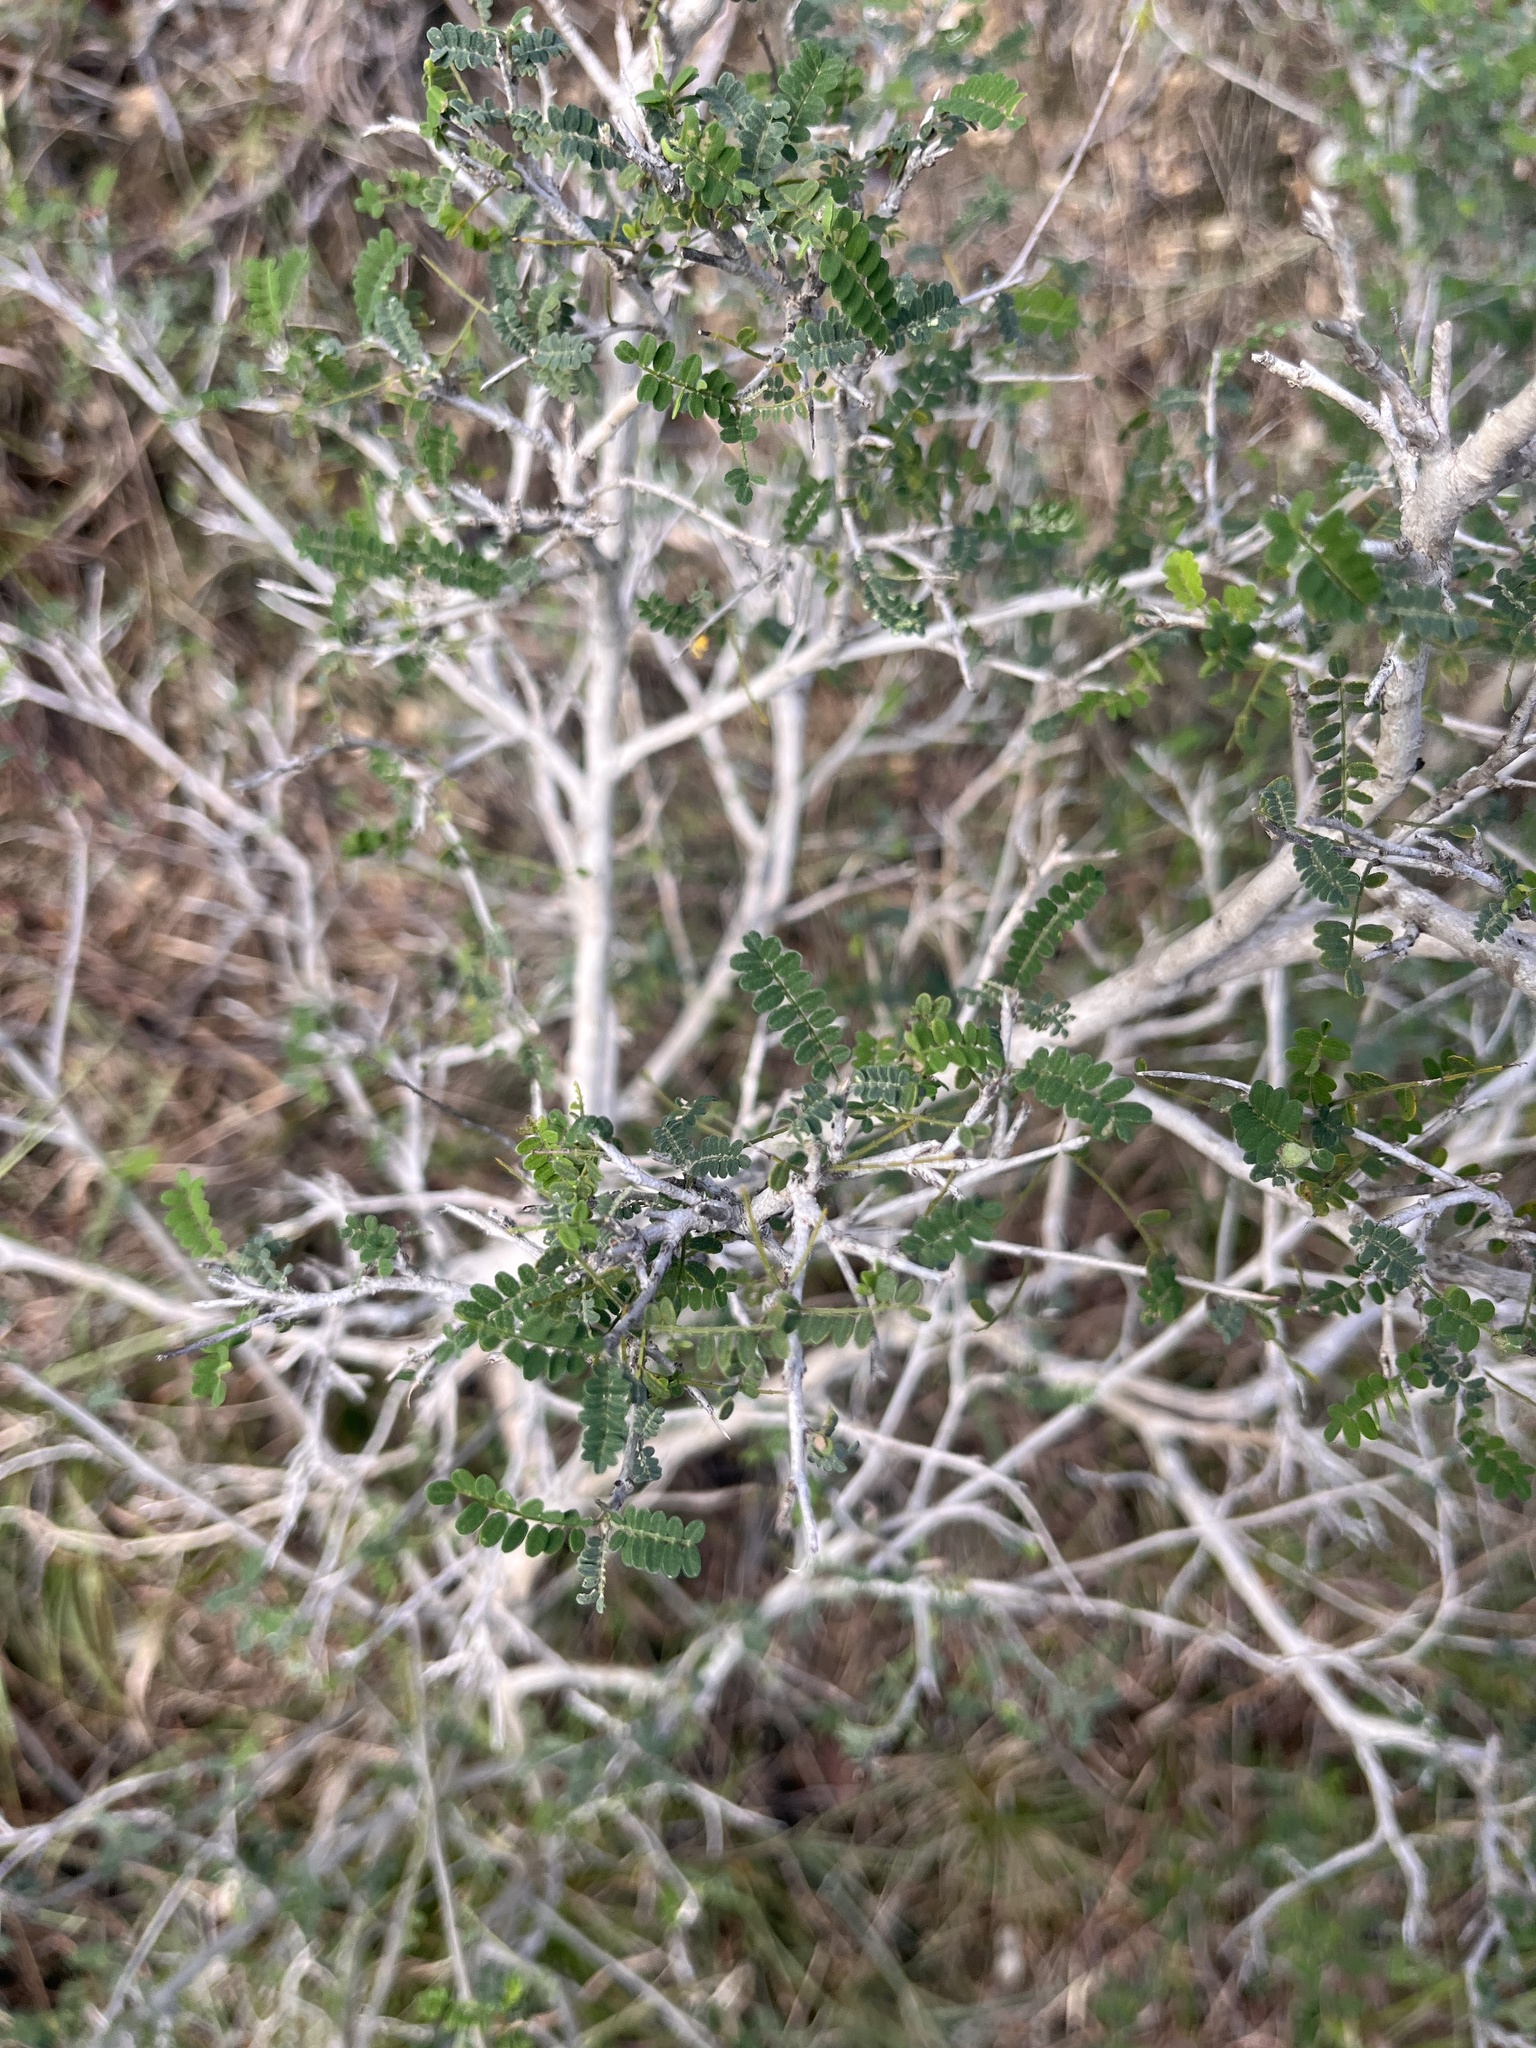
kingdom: Plantae
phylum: Tracheophyta
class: Magnoliopsida
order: Fabales
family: Fabaceae
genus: Eysenhardtia
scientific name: Eysenhardtia texana
